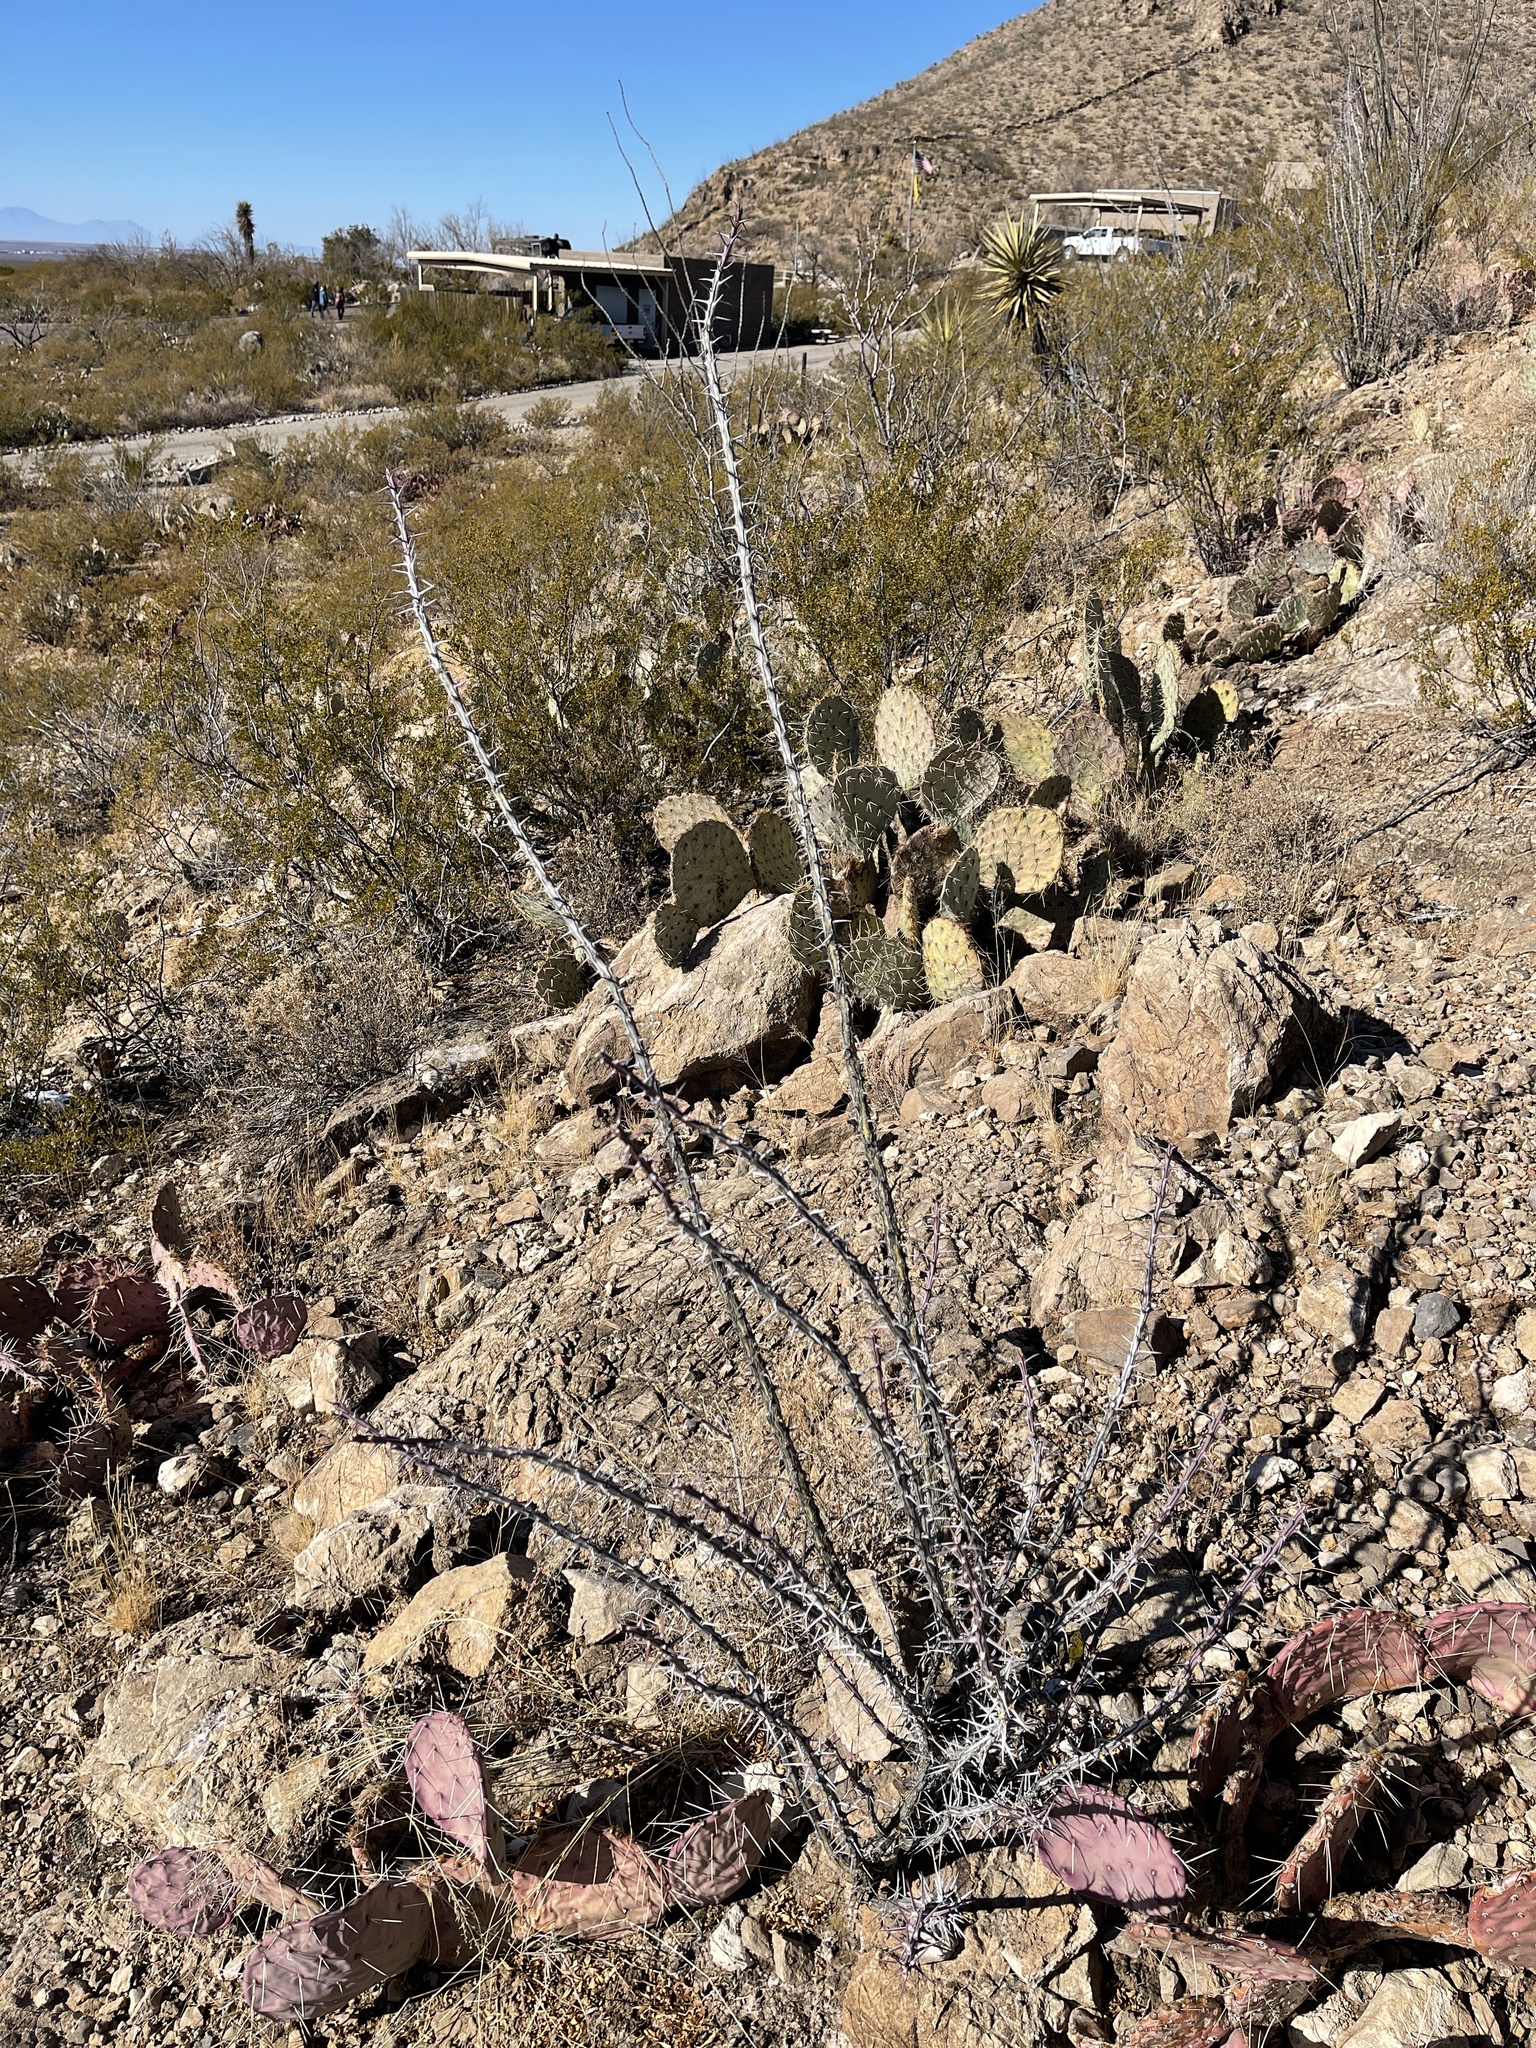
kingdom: Plantae
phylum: Tracheophyta
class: Magnoliopsida
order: Ericales
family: Fouquieriaceae
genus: Fouquieria
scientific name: Fouquieria splendens
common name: Vine-cactus
